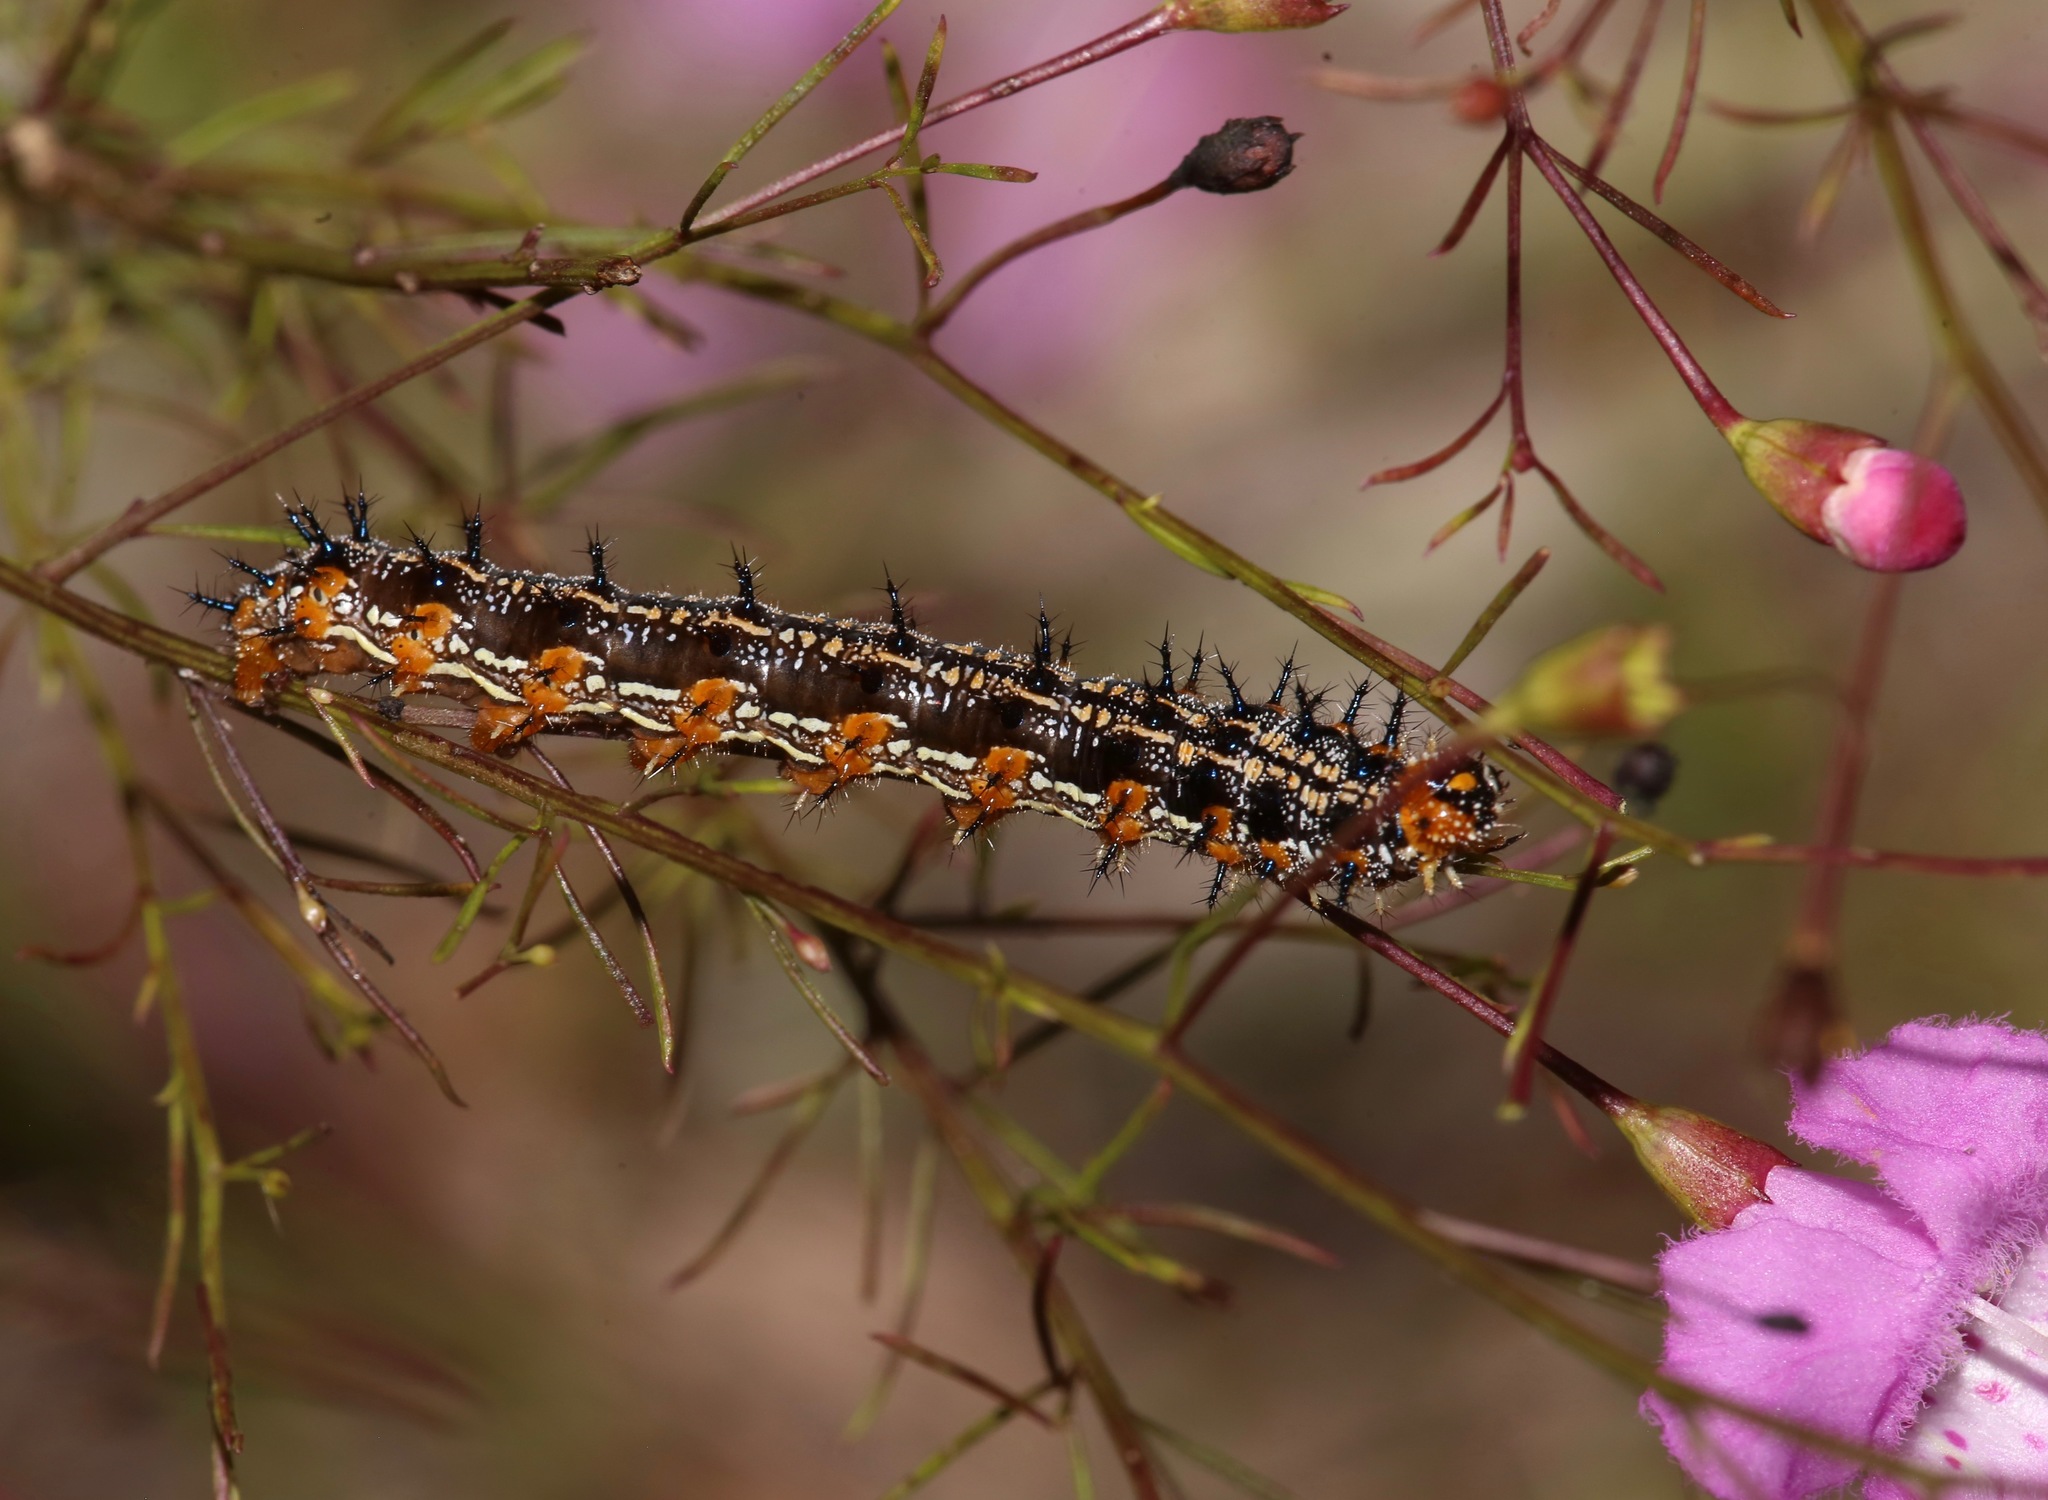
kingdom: Animalia
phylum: Arthropoda
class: Insecta
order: Lepidoptera
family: Nymphalidae
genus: Junonia
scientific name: Junonia coenia
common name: Common buckeye
